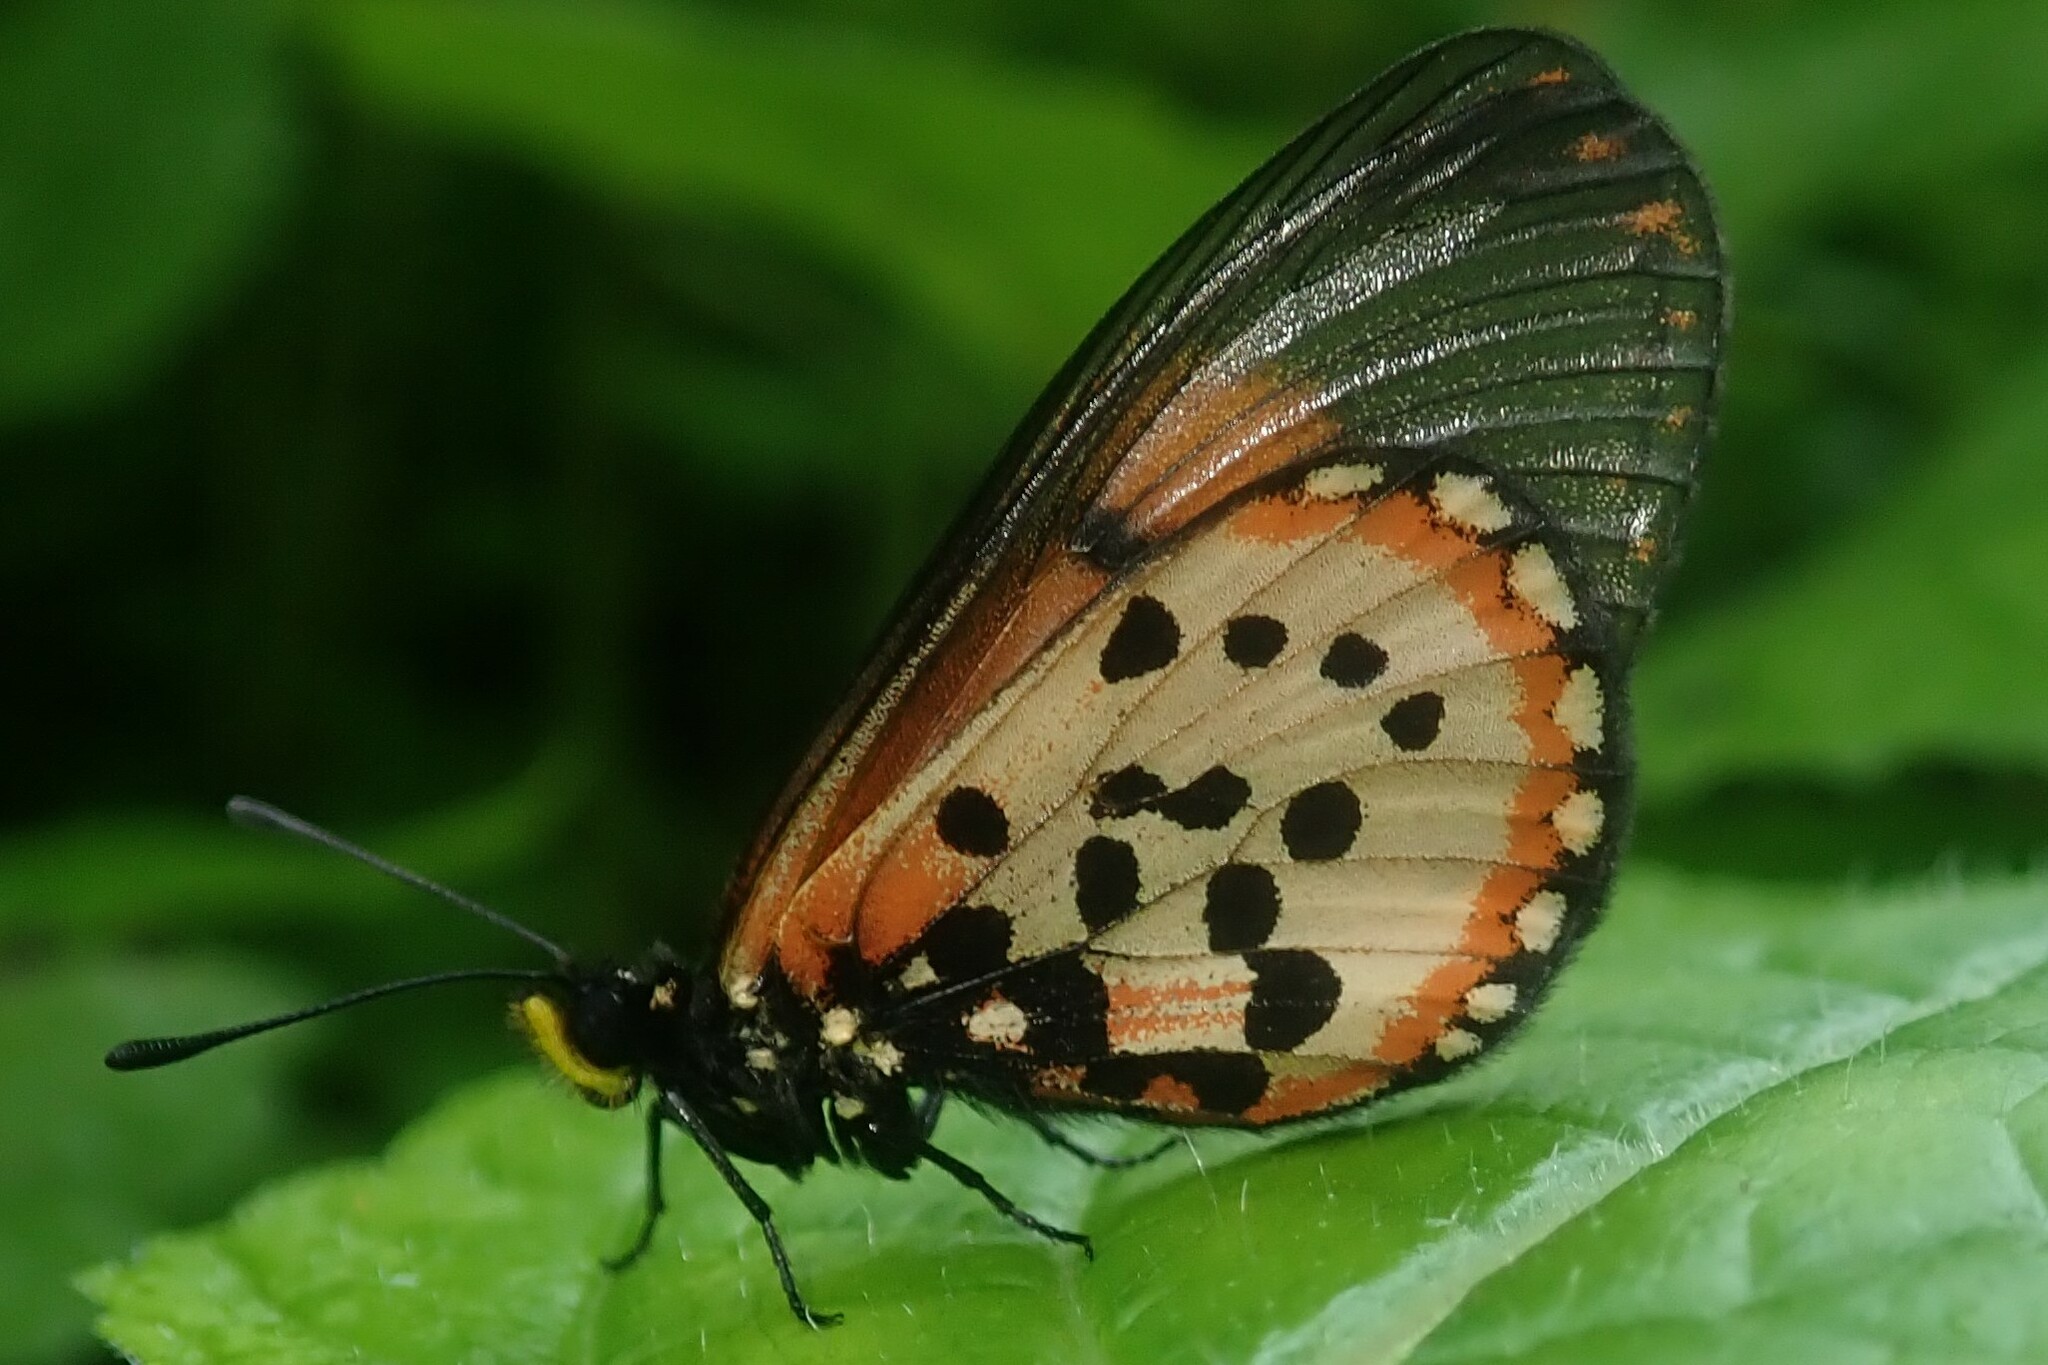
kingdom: Animalia
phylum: Arthropoda
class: Insecta
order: Lepidoptera
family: Nymphalidae
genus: Acraea
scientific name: Acraea horta
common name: Garden acraea
